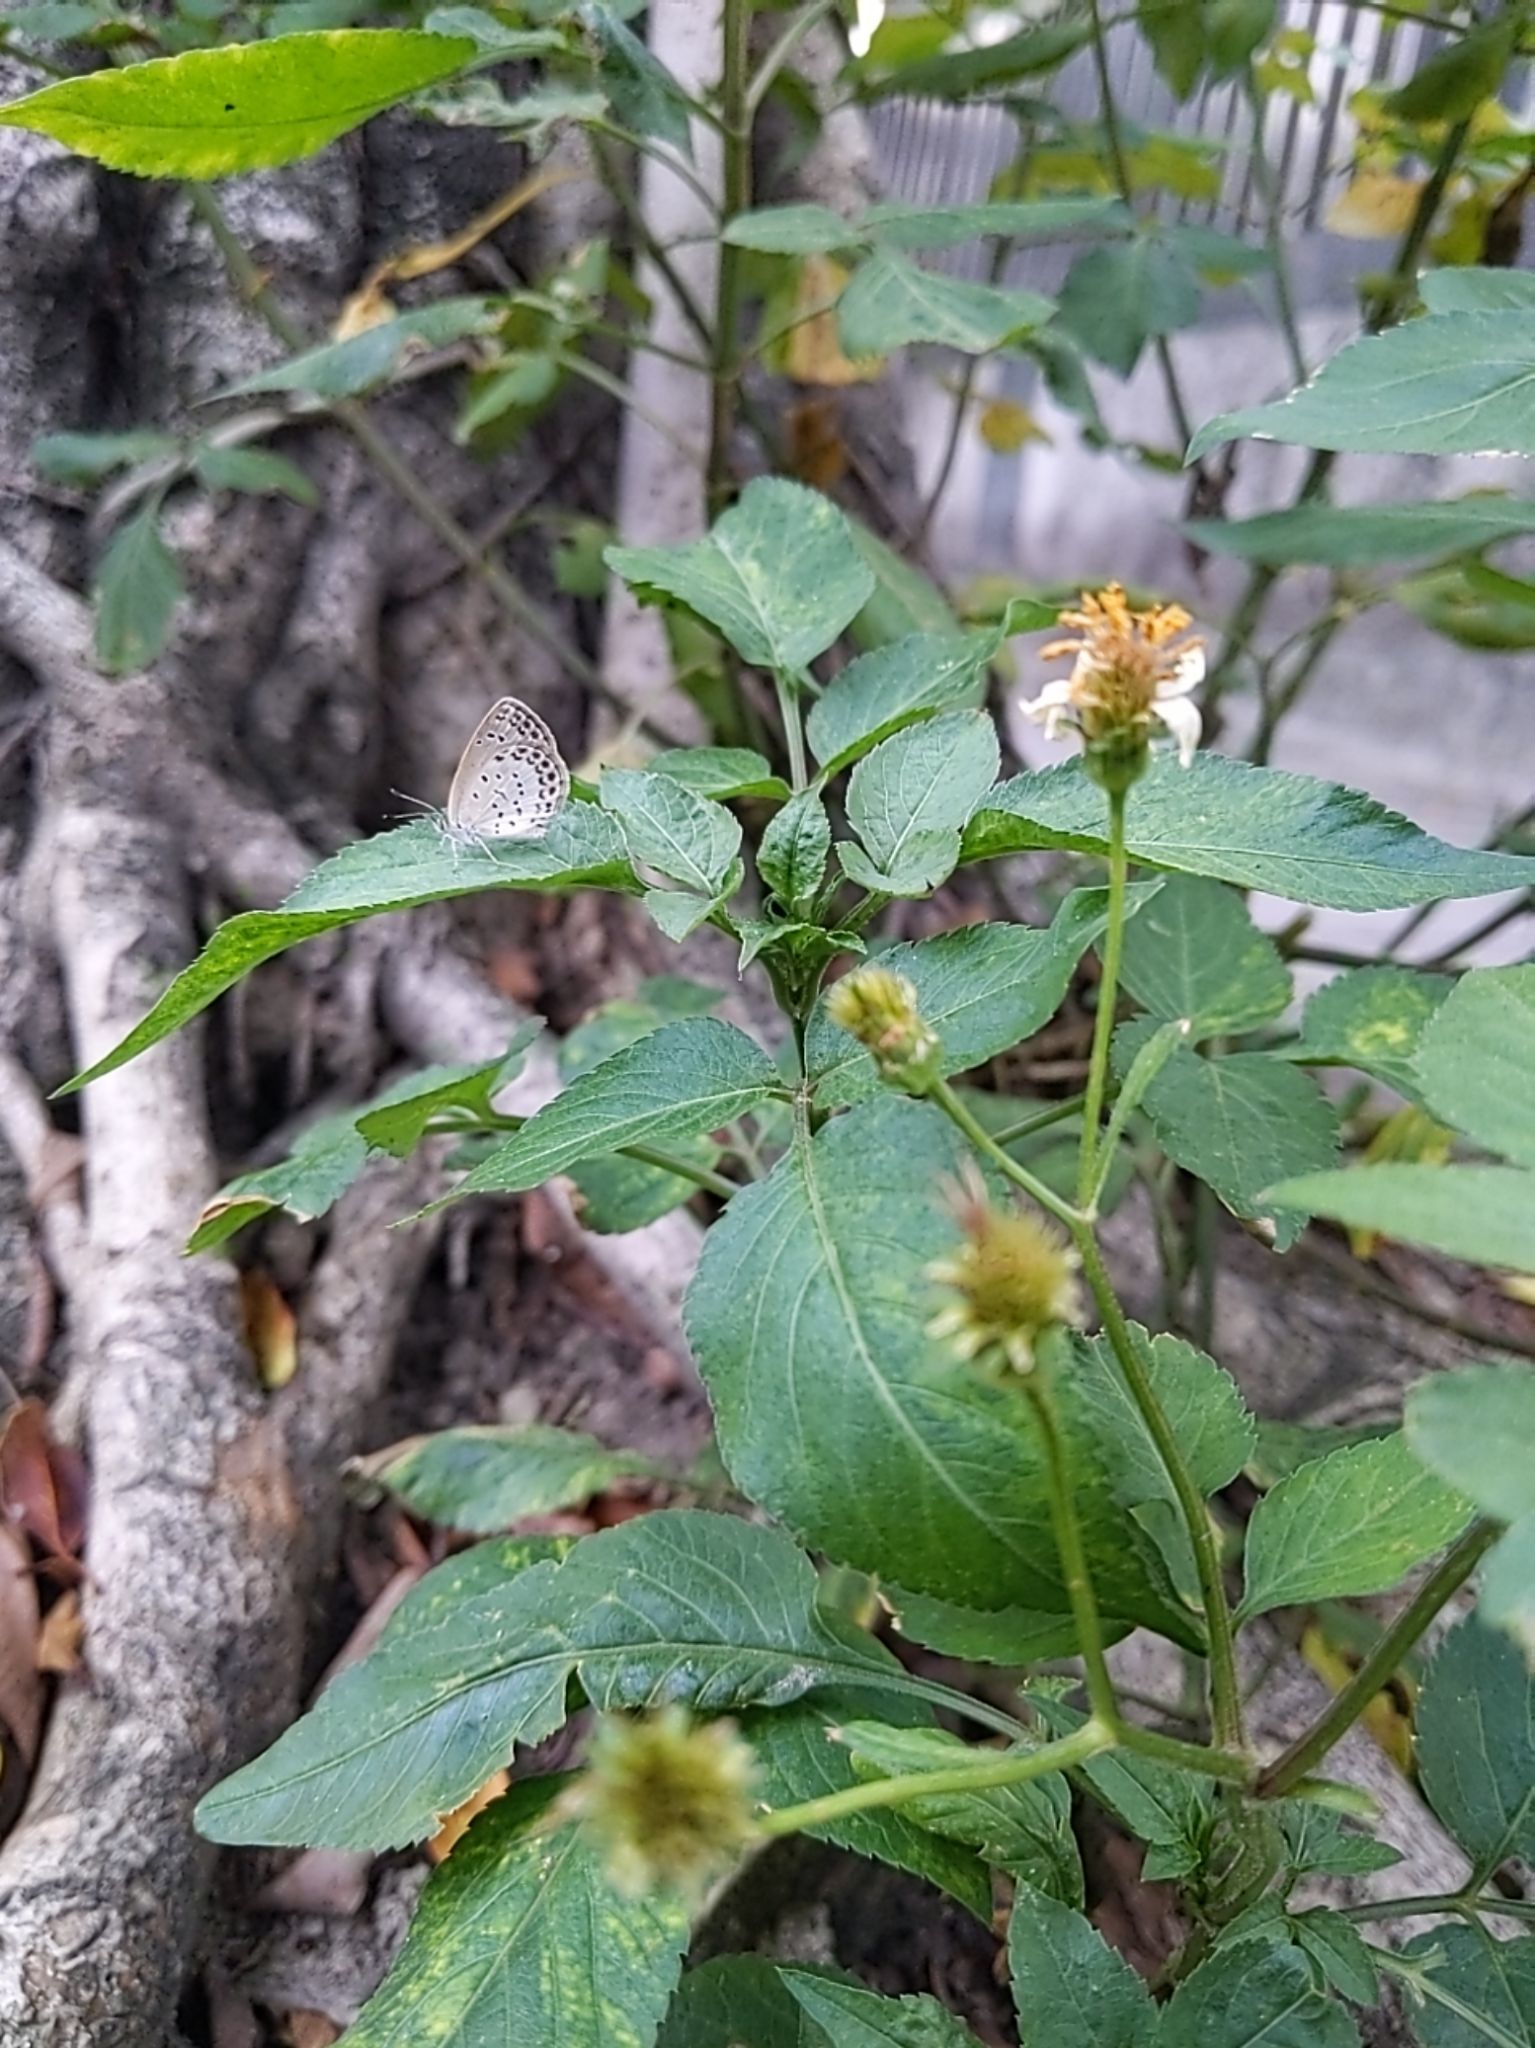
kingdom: Animalia
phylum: Arthropoda
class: Insecta
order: Lepidoptera
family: Lycaenidae
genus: Pseudozizeeria
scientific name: Pseudozizeeria maha
